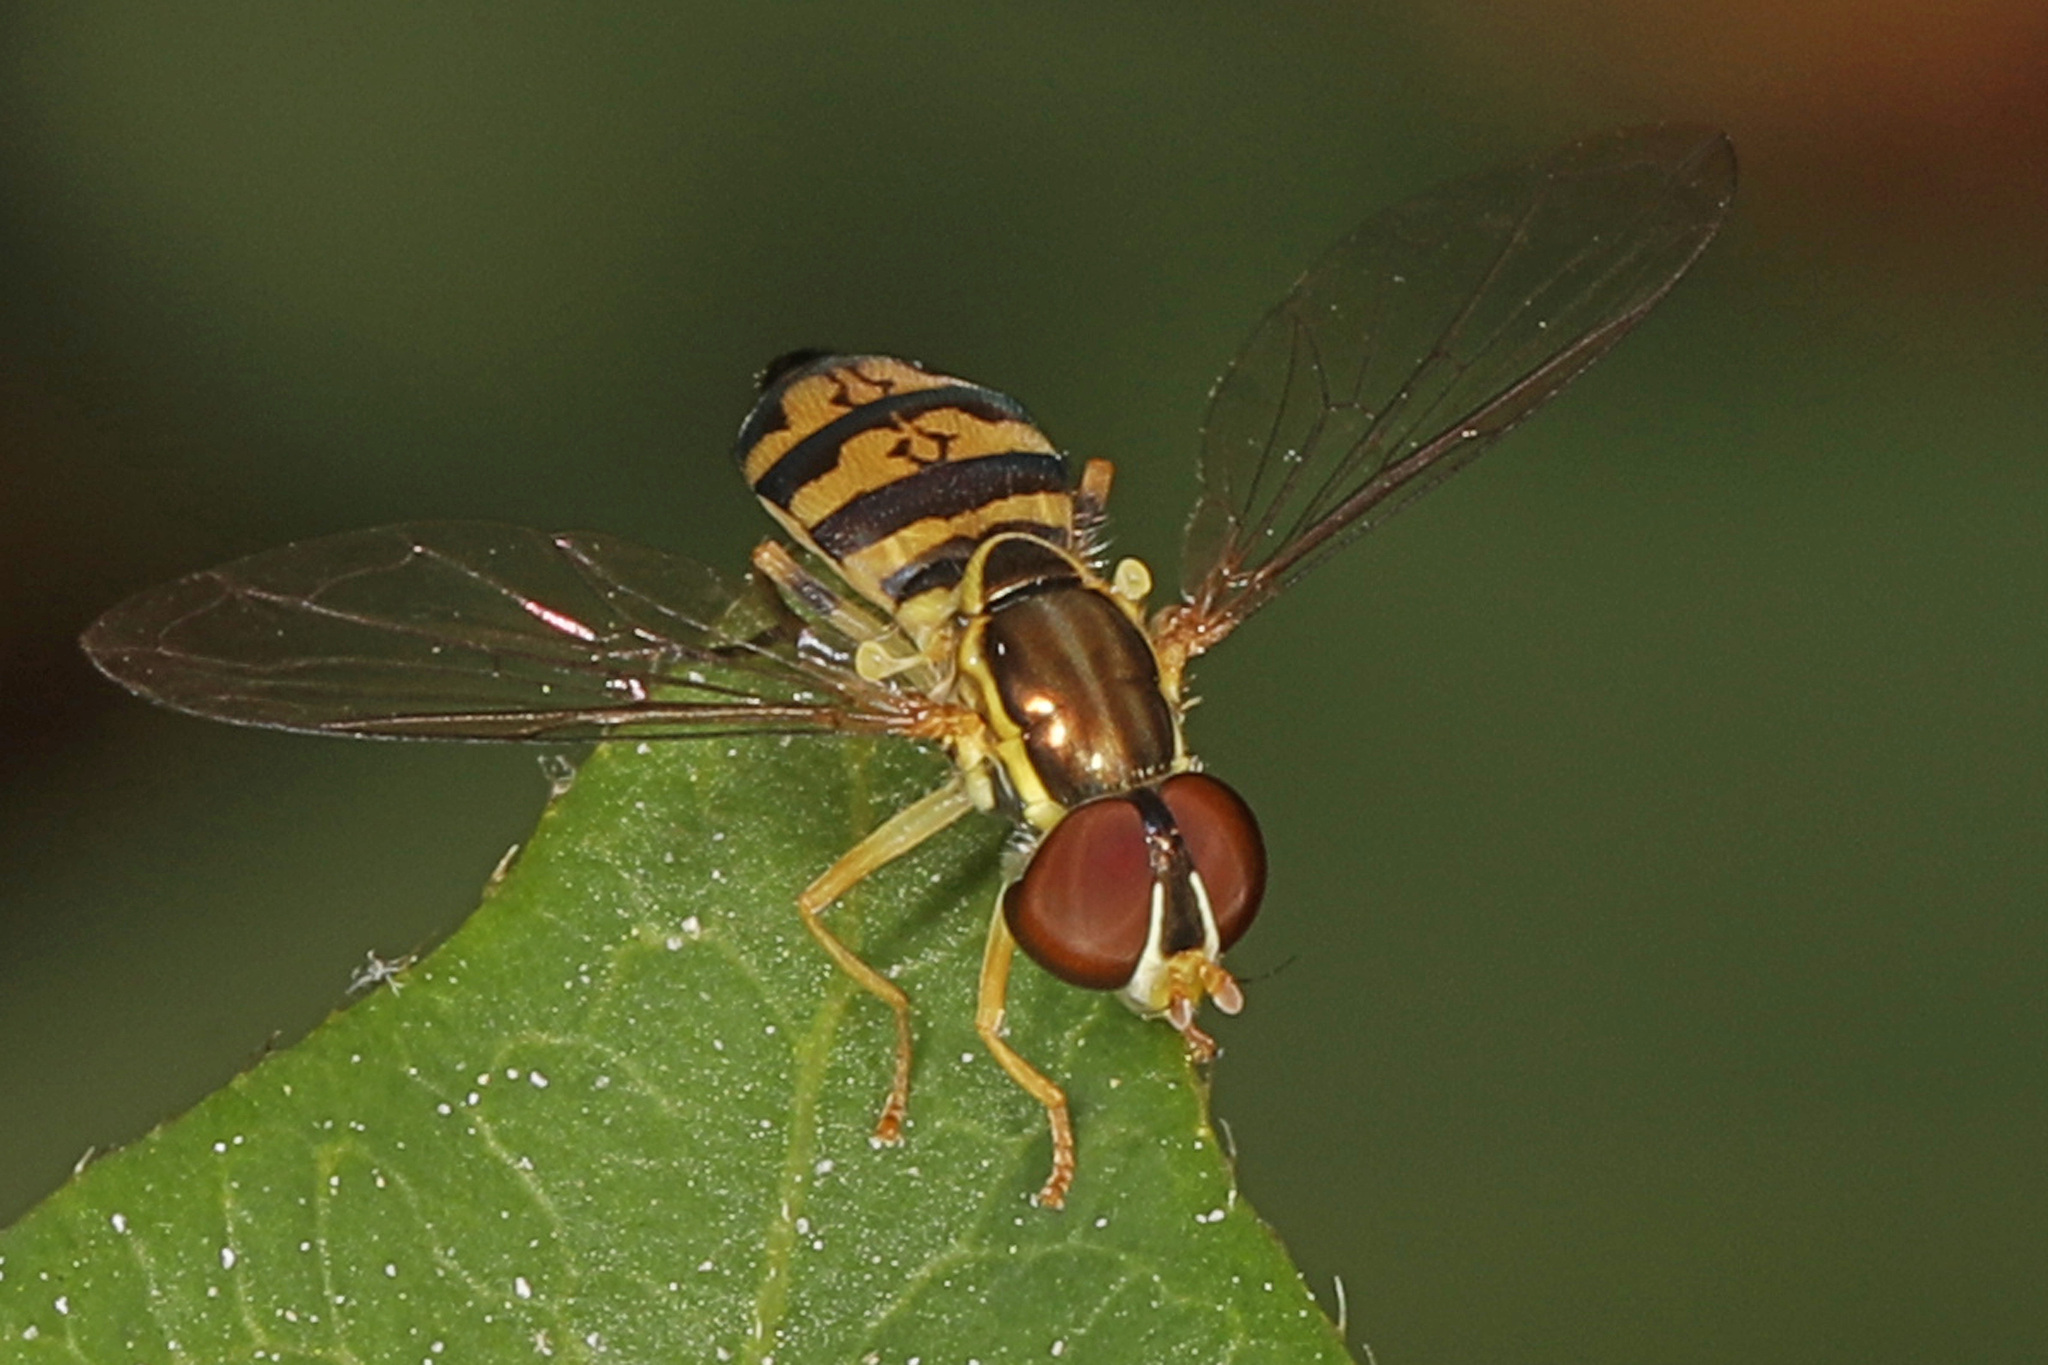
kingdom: Animalia
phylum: Arthropoda
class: Insecta
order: Diptera
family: Syrphidae
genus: Toxomerus
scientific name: Toxomerus geminatus
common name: Eastern calligrapher
